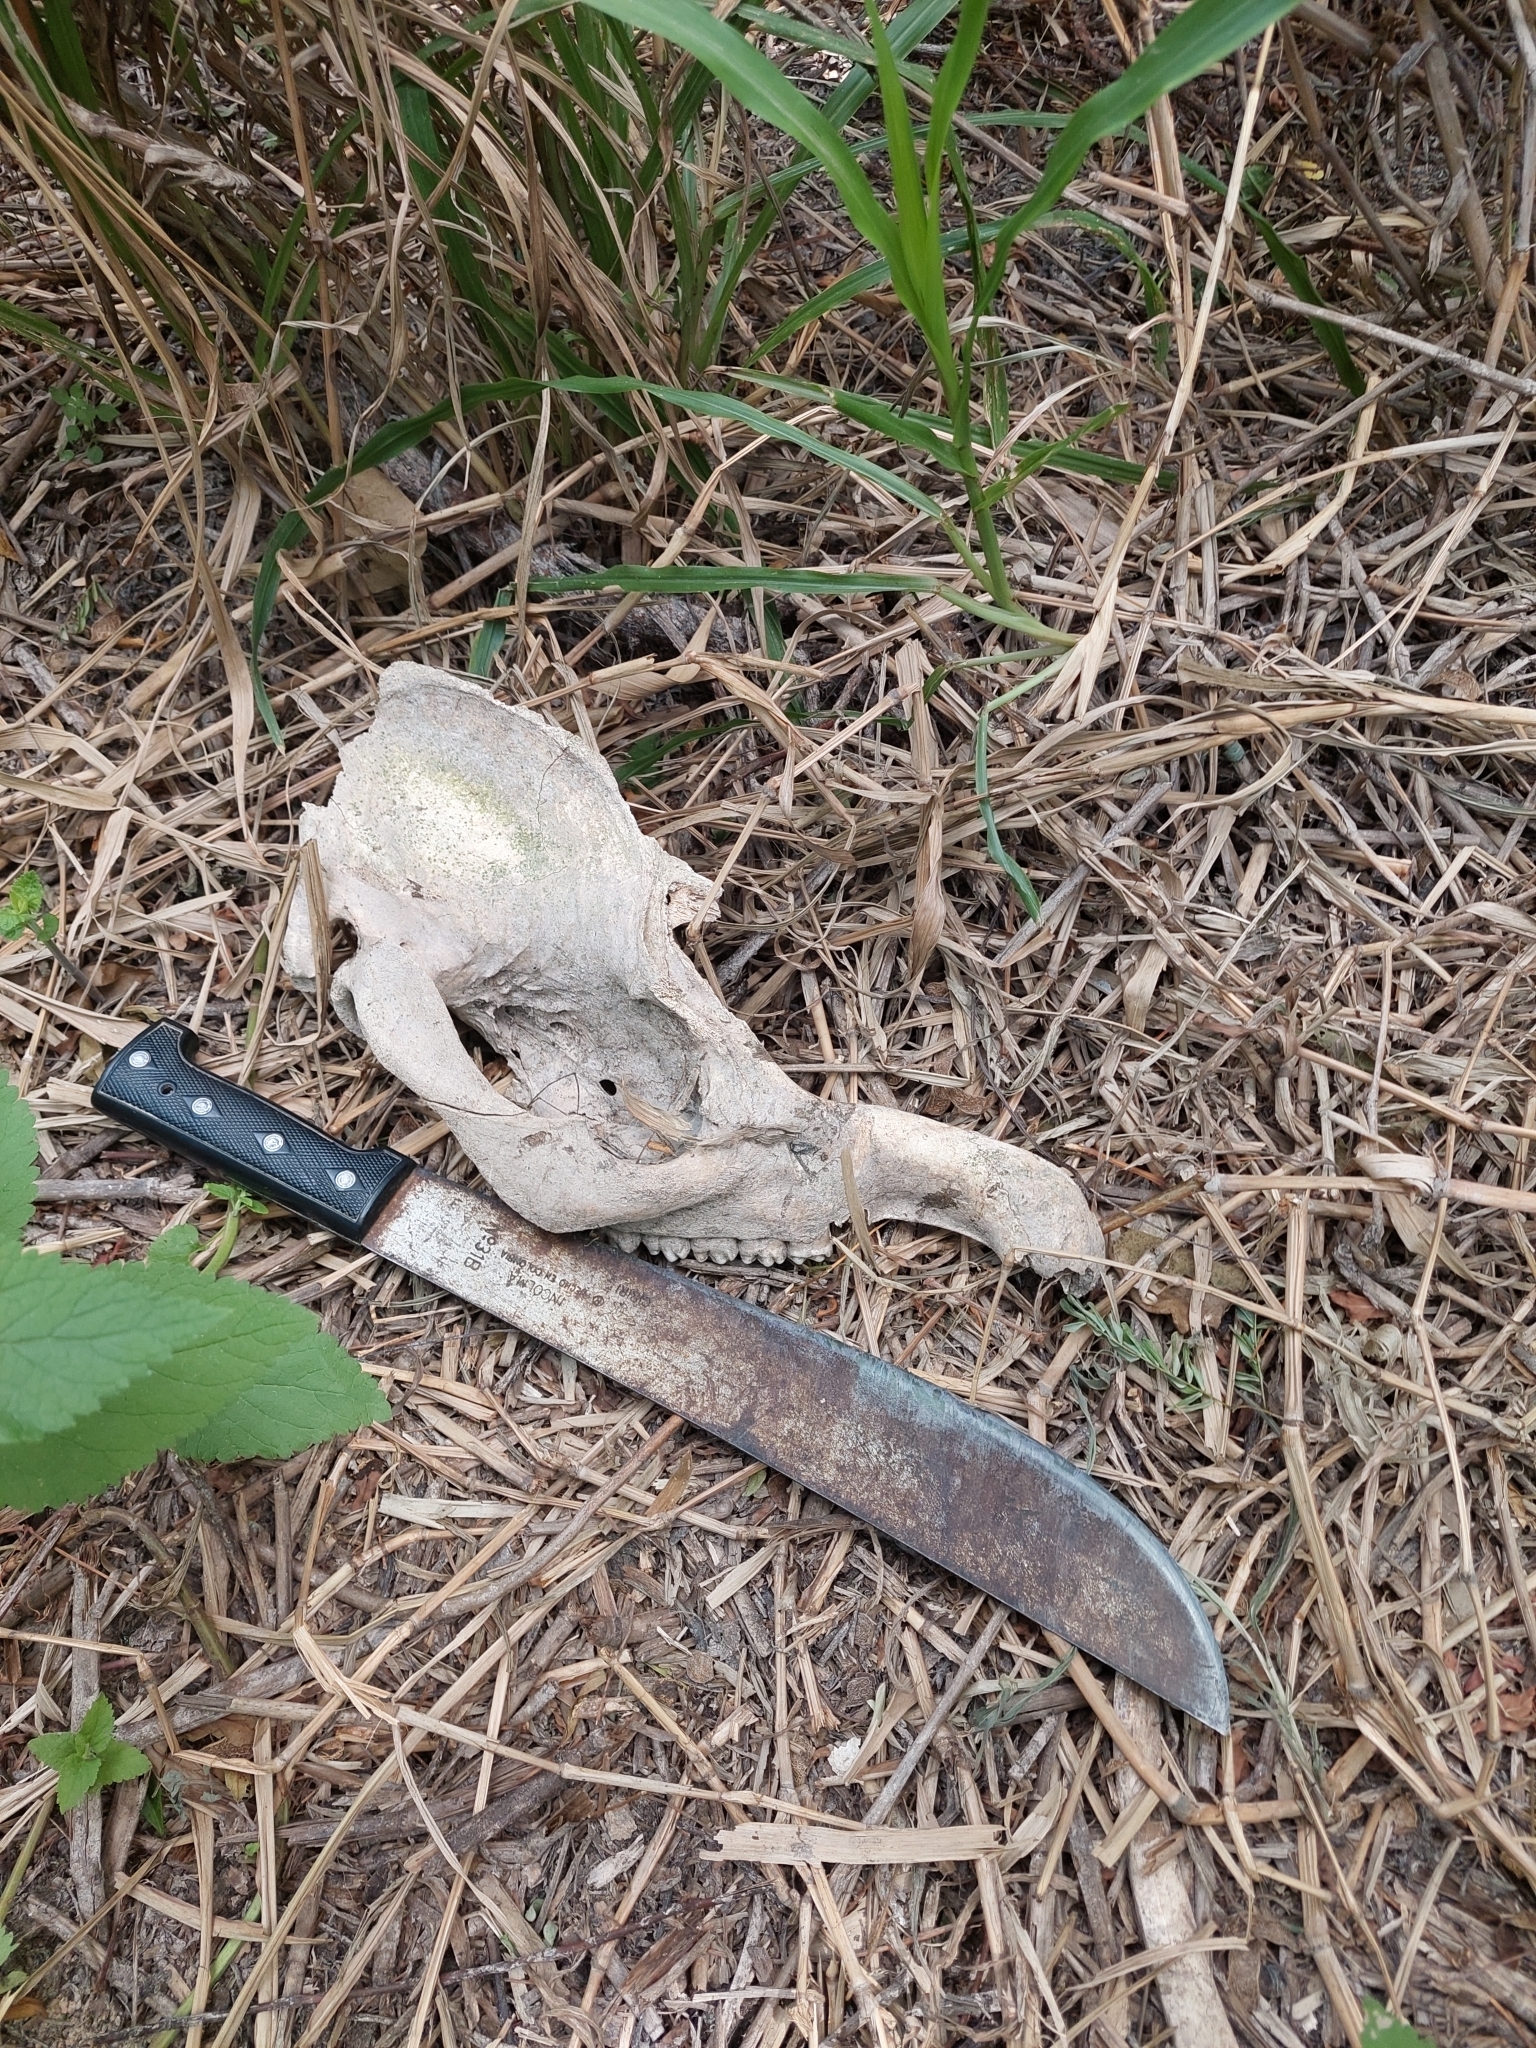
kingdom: Animalia
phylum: Chordata
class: Mammalia
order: Perissodactyla
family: Tapiridae
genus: Tapirus
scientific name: Tapirus terrestris
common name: Brazilian tapir
